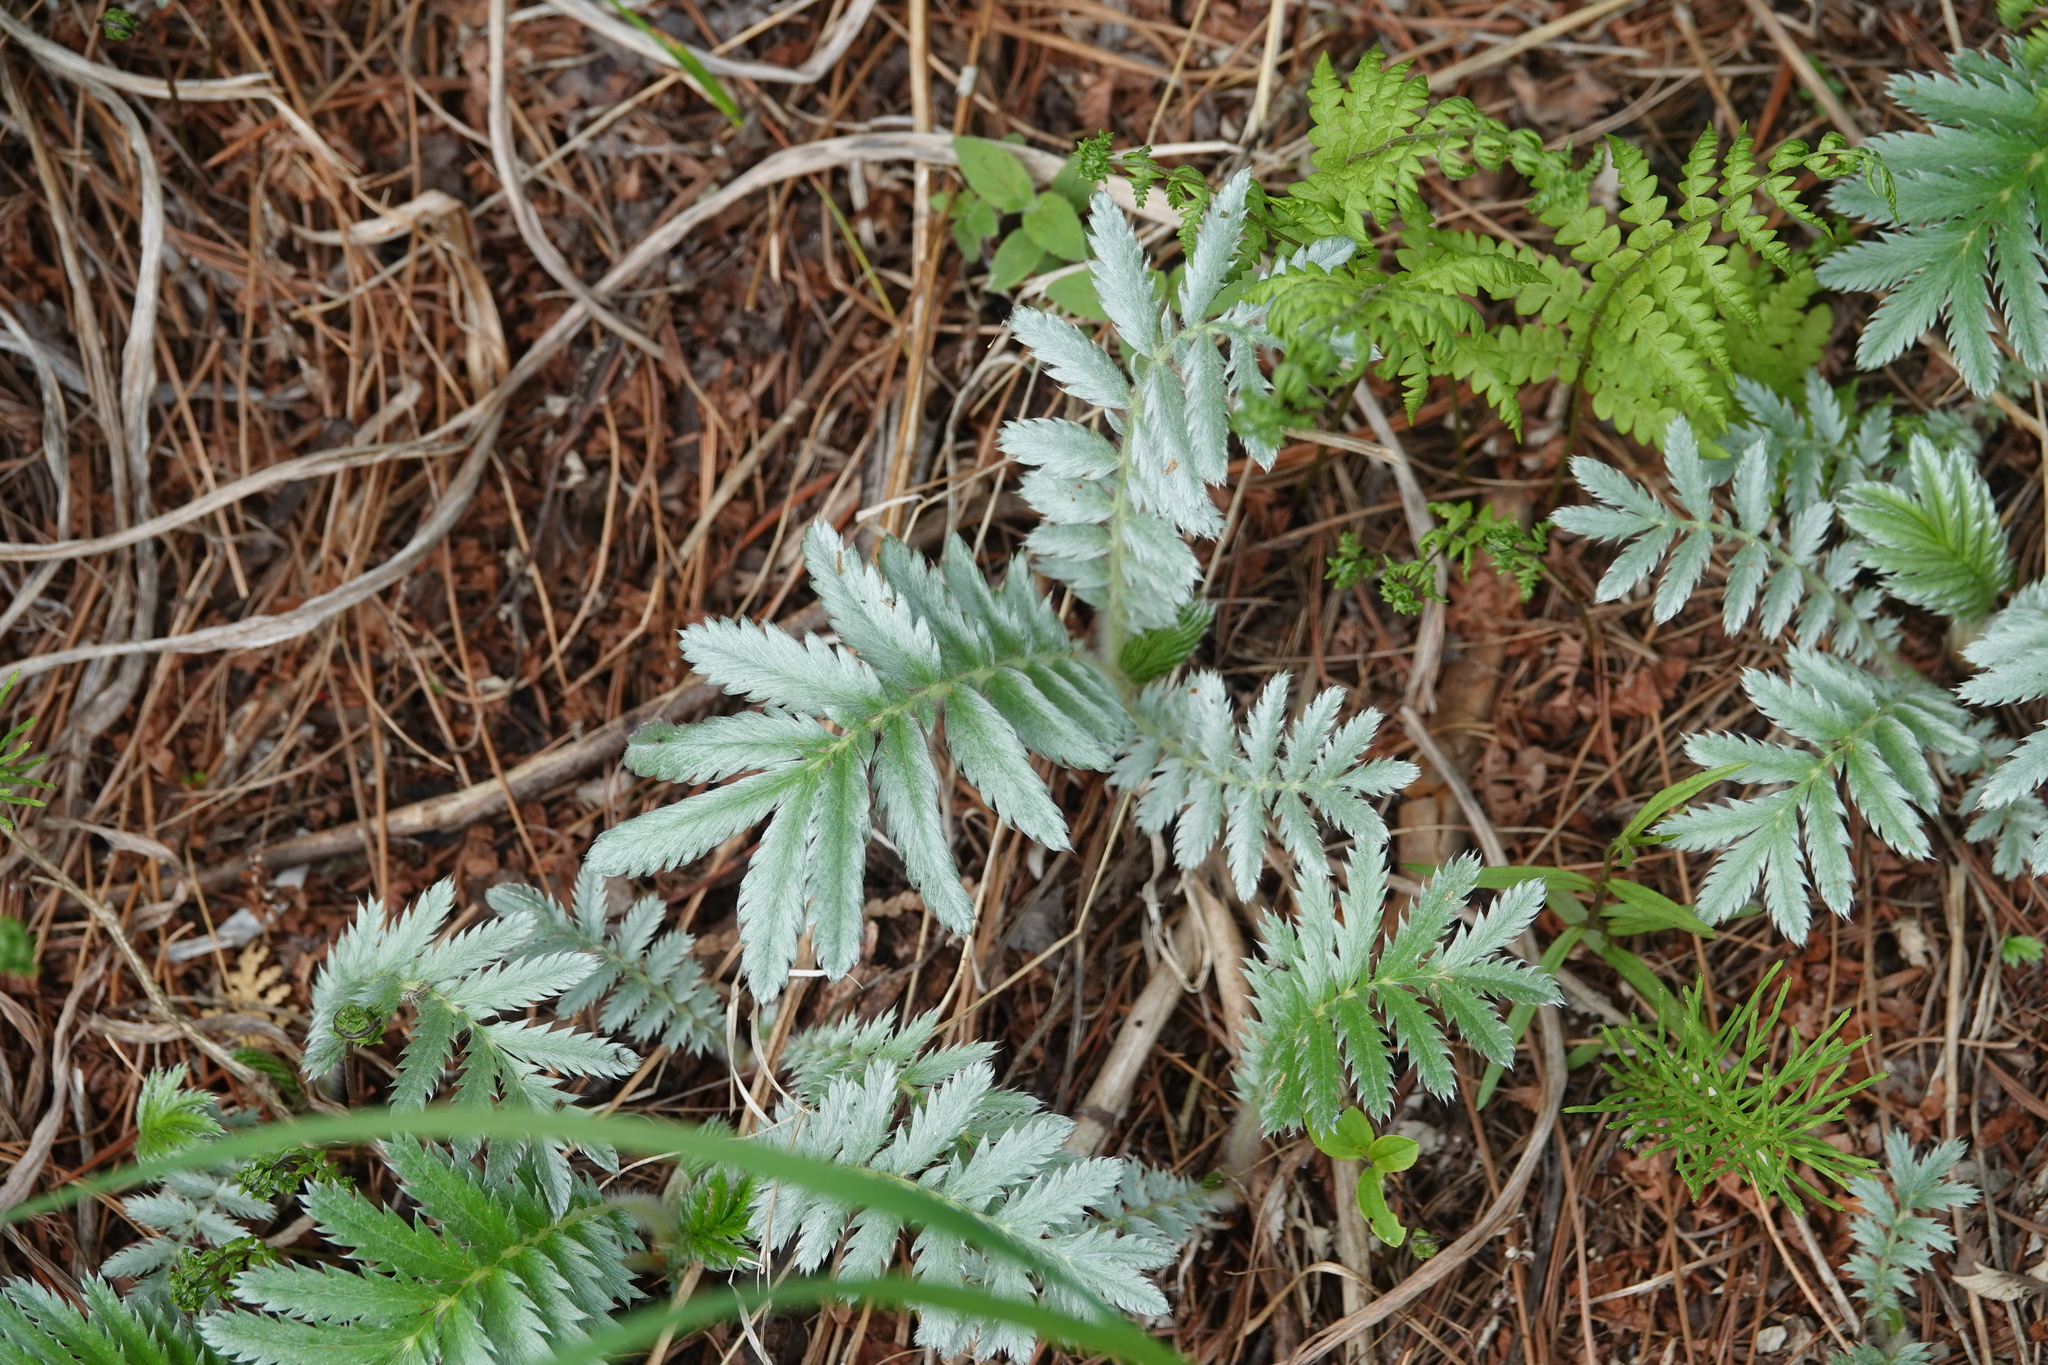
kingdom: Plantae
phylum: Tracheophyta
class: Magnoliopsida
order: Rosales
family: Rosaceae
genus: Argentina
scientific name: Argentina anserina
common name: Common silverweed
